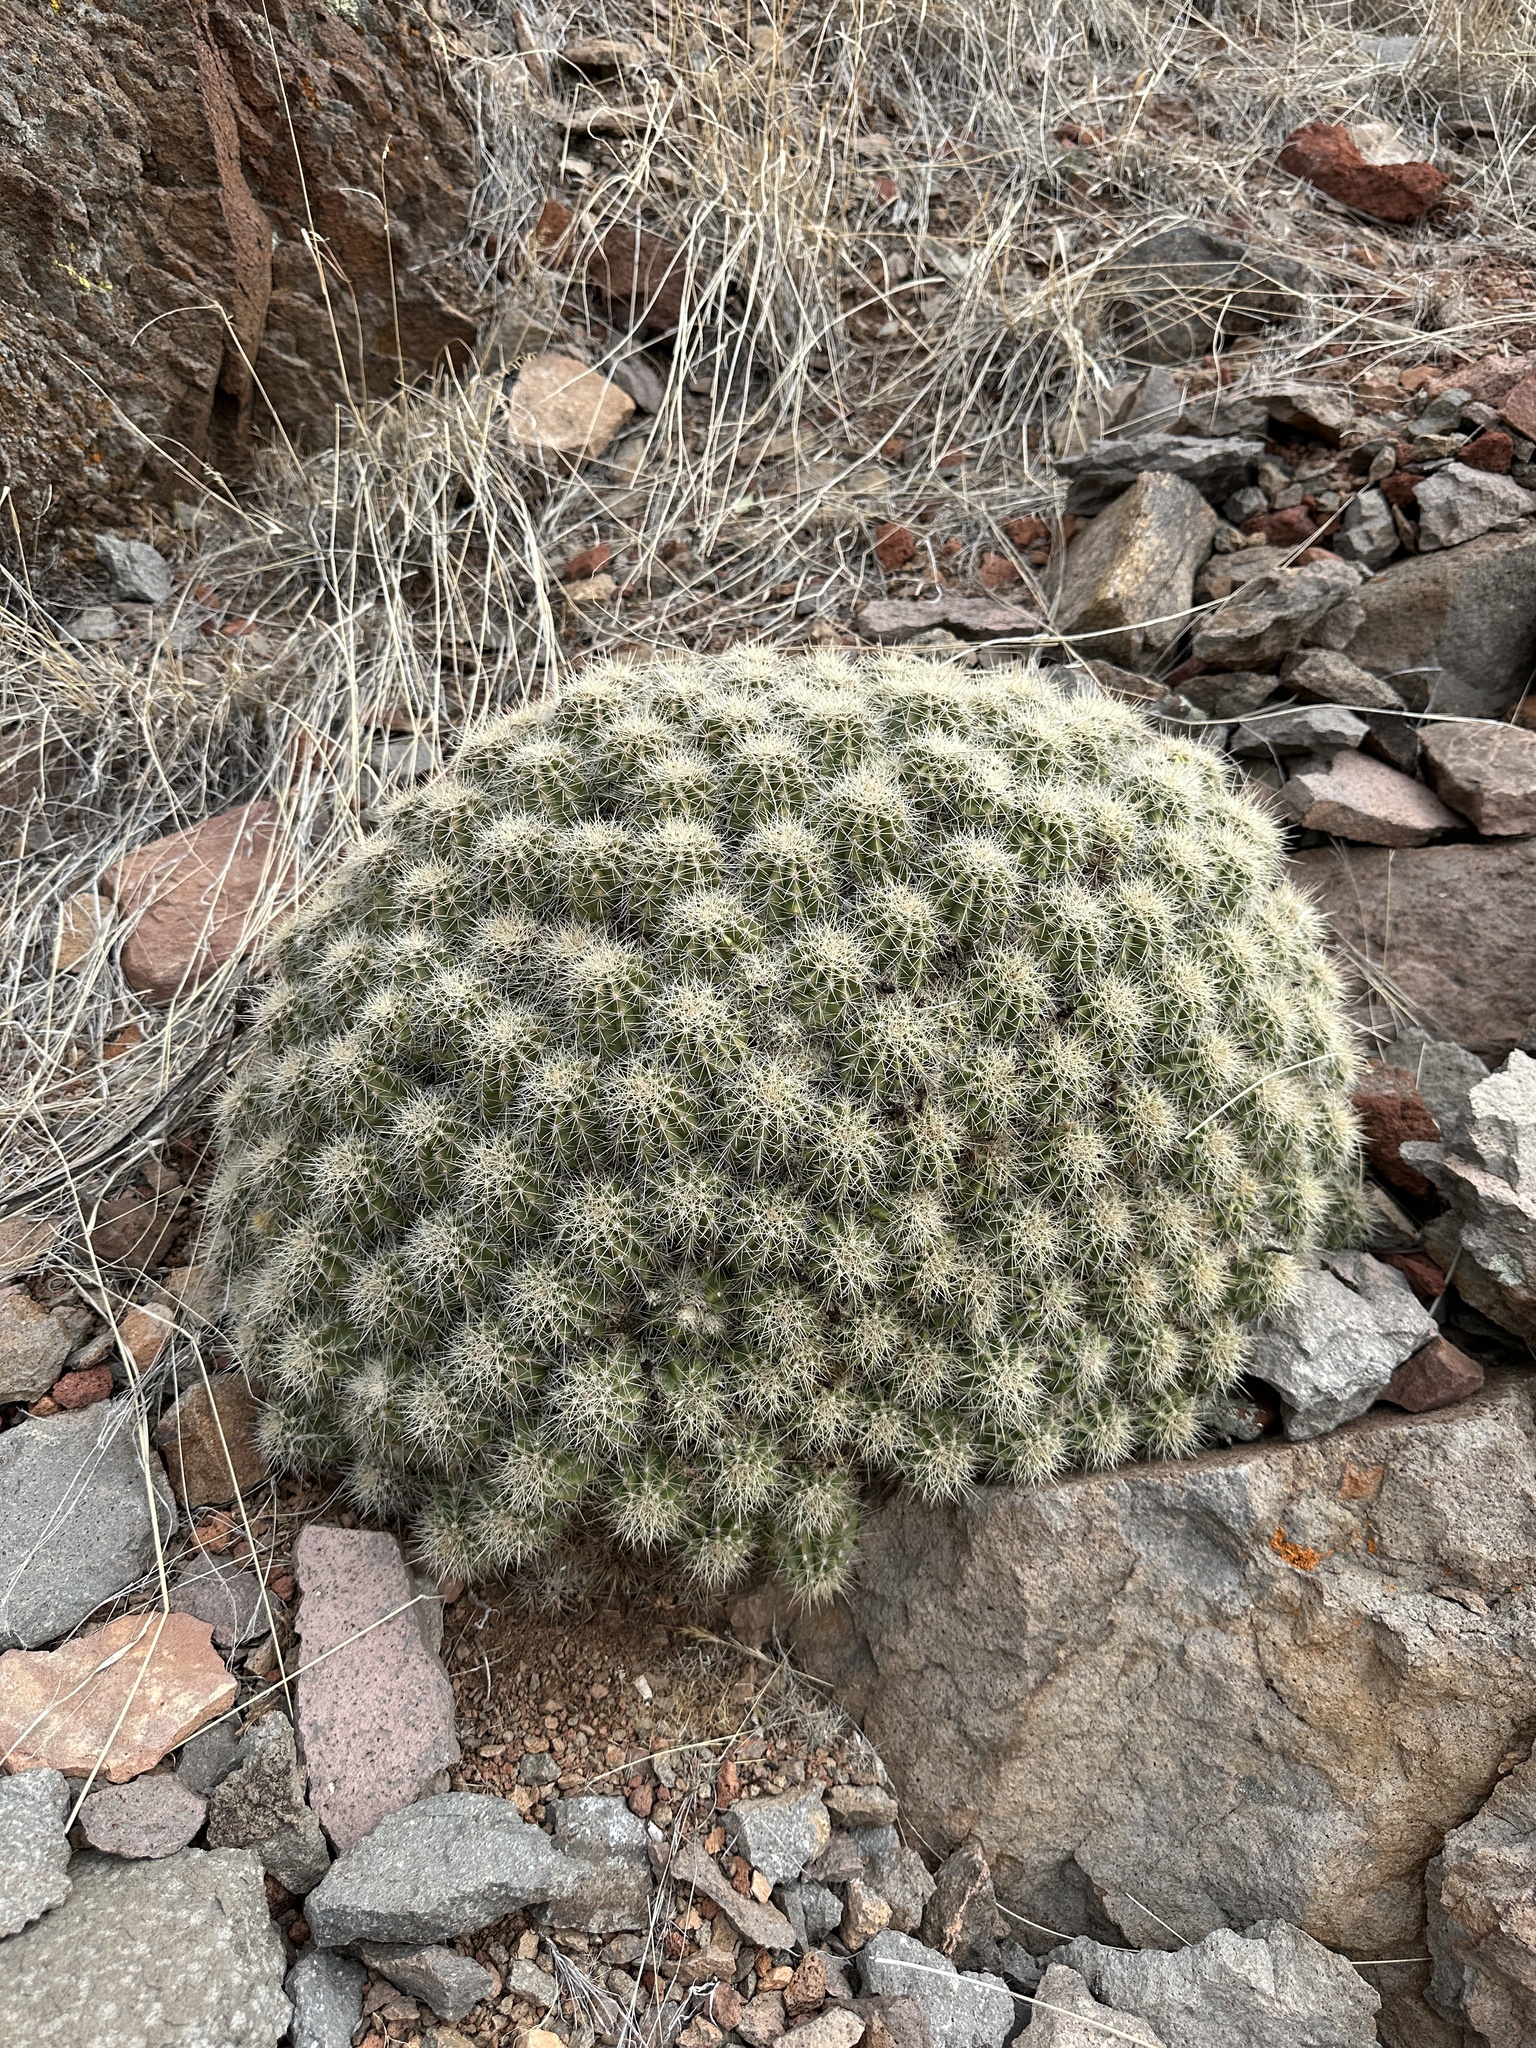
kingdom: Plantae
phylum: Tracheophyta
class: Magnoliopsida
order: Caryophyllales
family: Cactaceae
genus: Echinocereus
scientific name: Echinocereus bakeri
